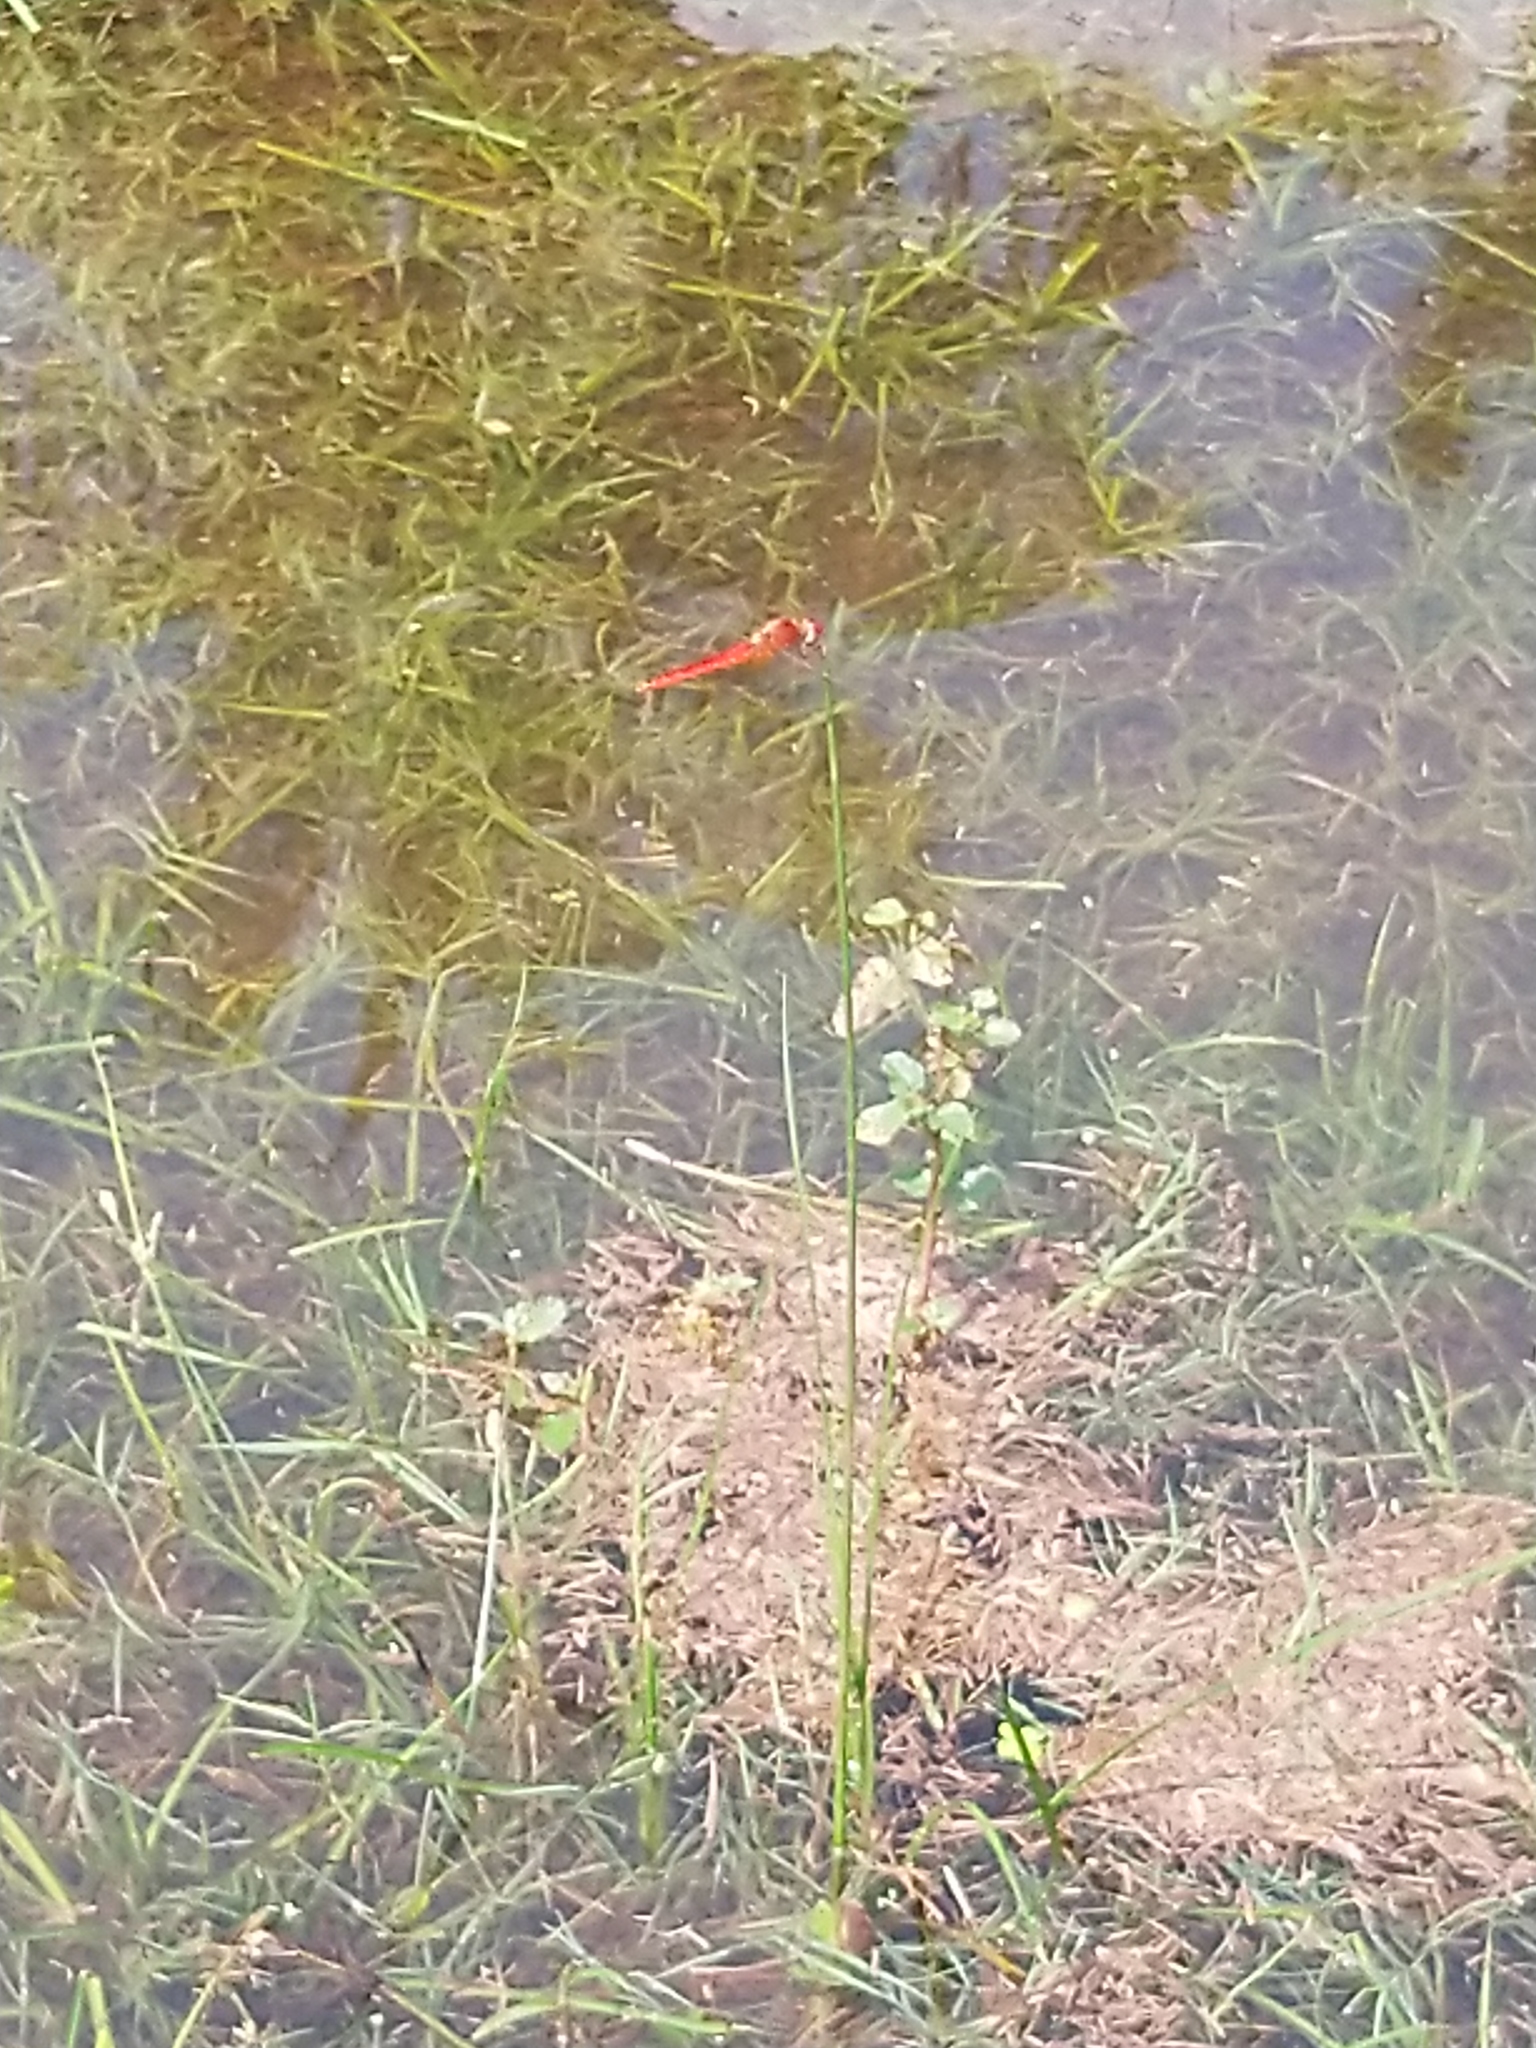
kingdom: Animalia
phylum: Arthropoda
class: Insecta
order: Odonata
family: Libellulidae
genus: Crocothemis
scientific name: Crocothemis servilia
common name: Scarlet skimmer
